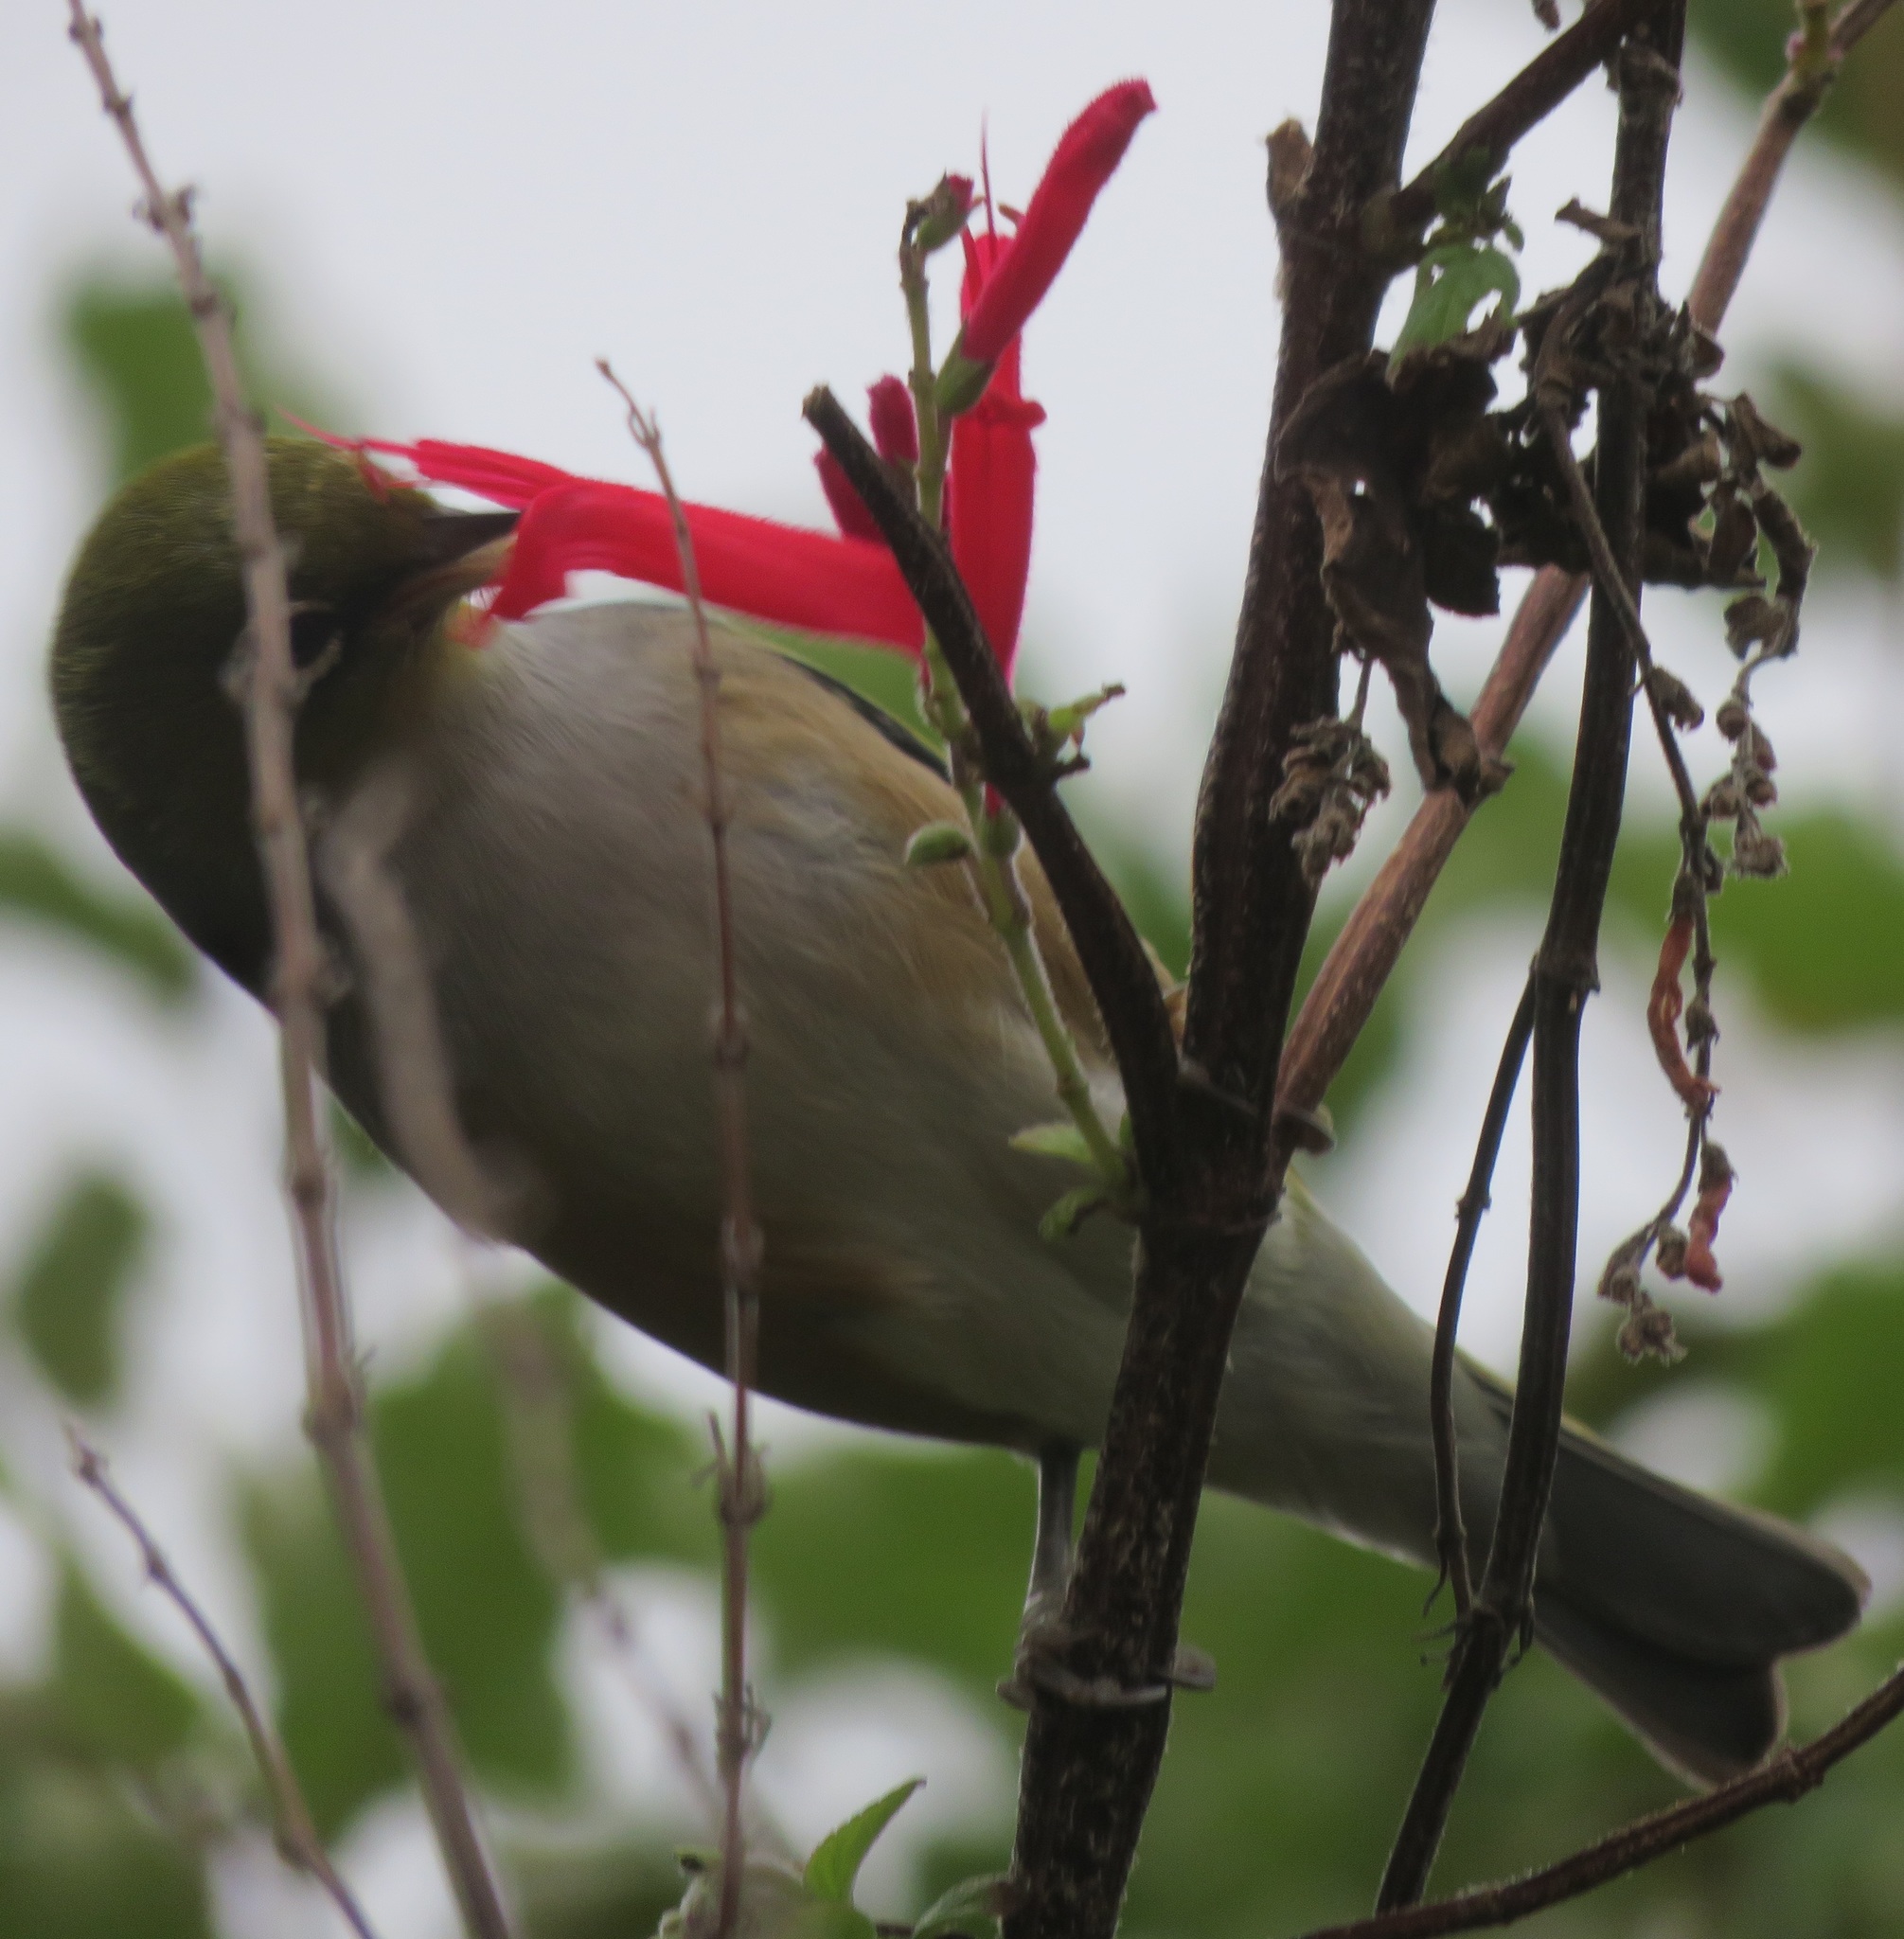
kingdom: Animalia
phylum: Chordata
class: Aves
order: Passeriformes
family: Zosteropidae
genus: Zosterops
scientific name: Zosterops lateralis
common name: Silvereye
